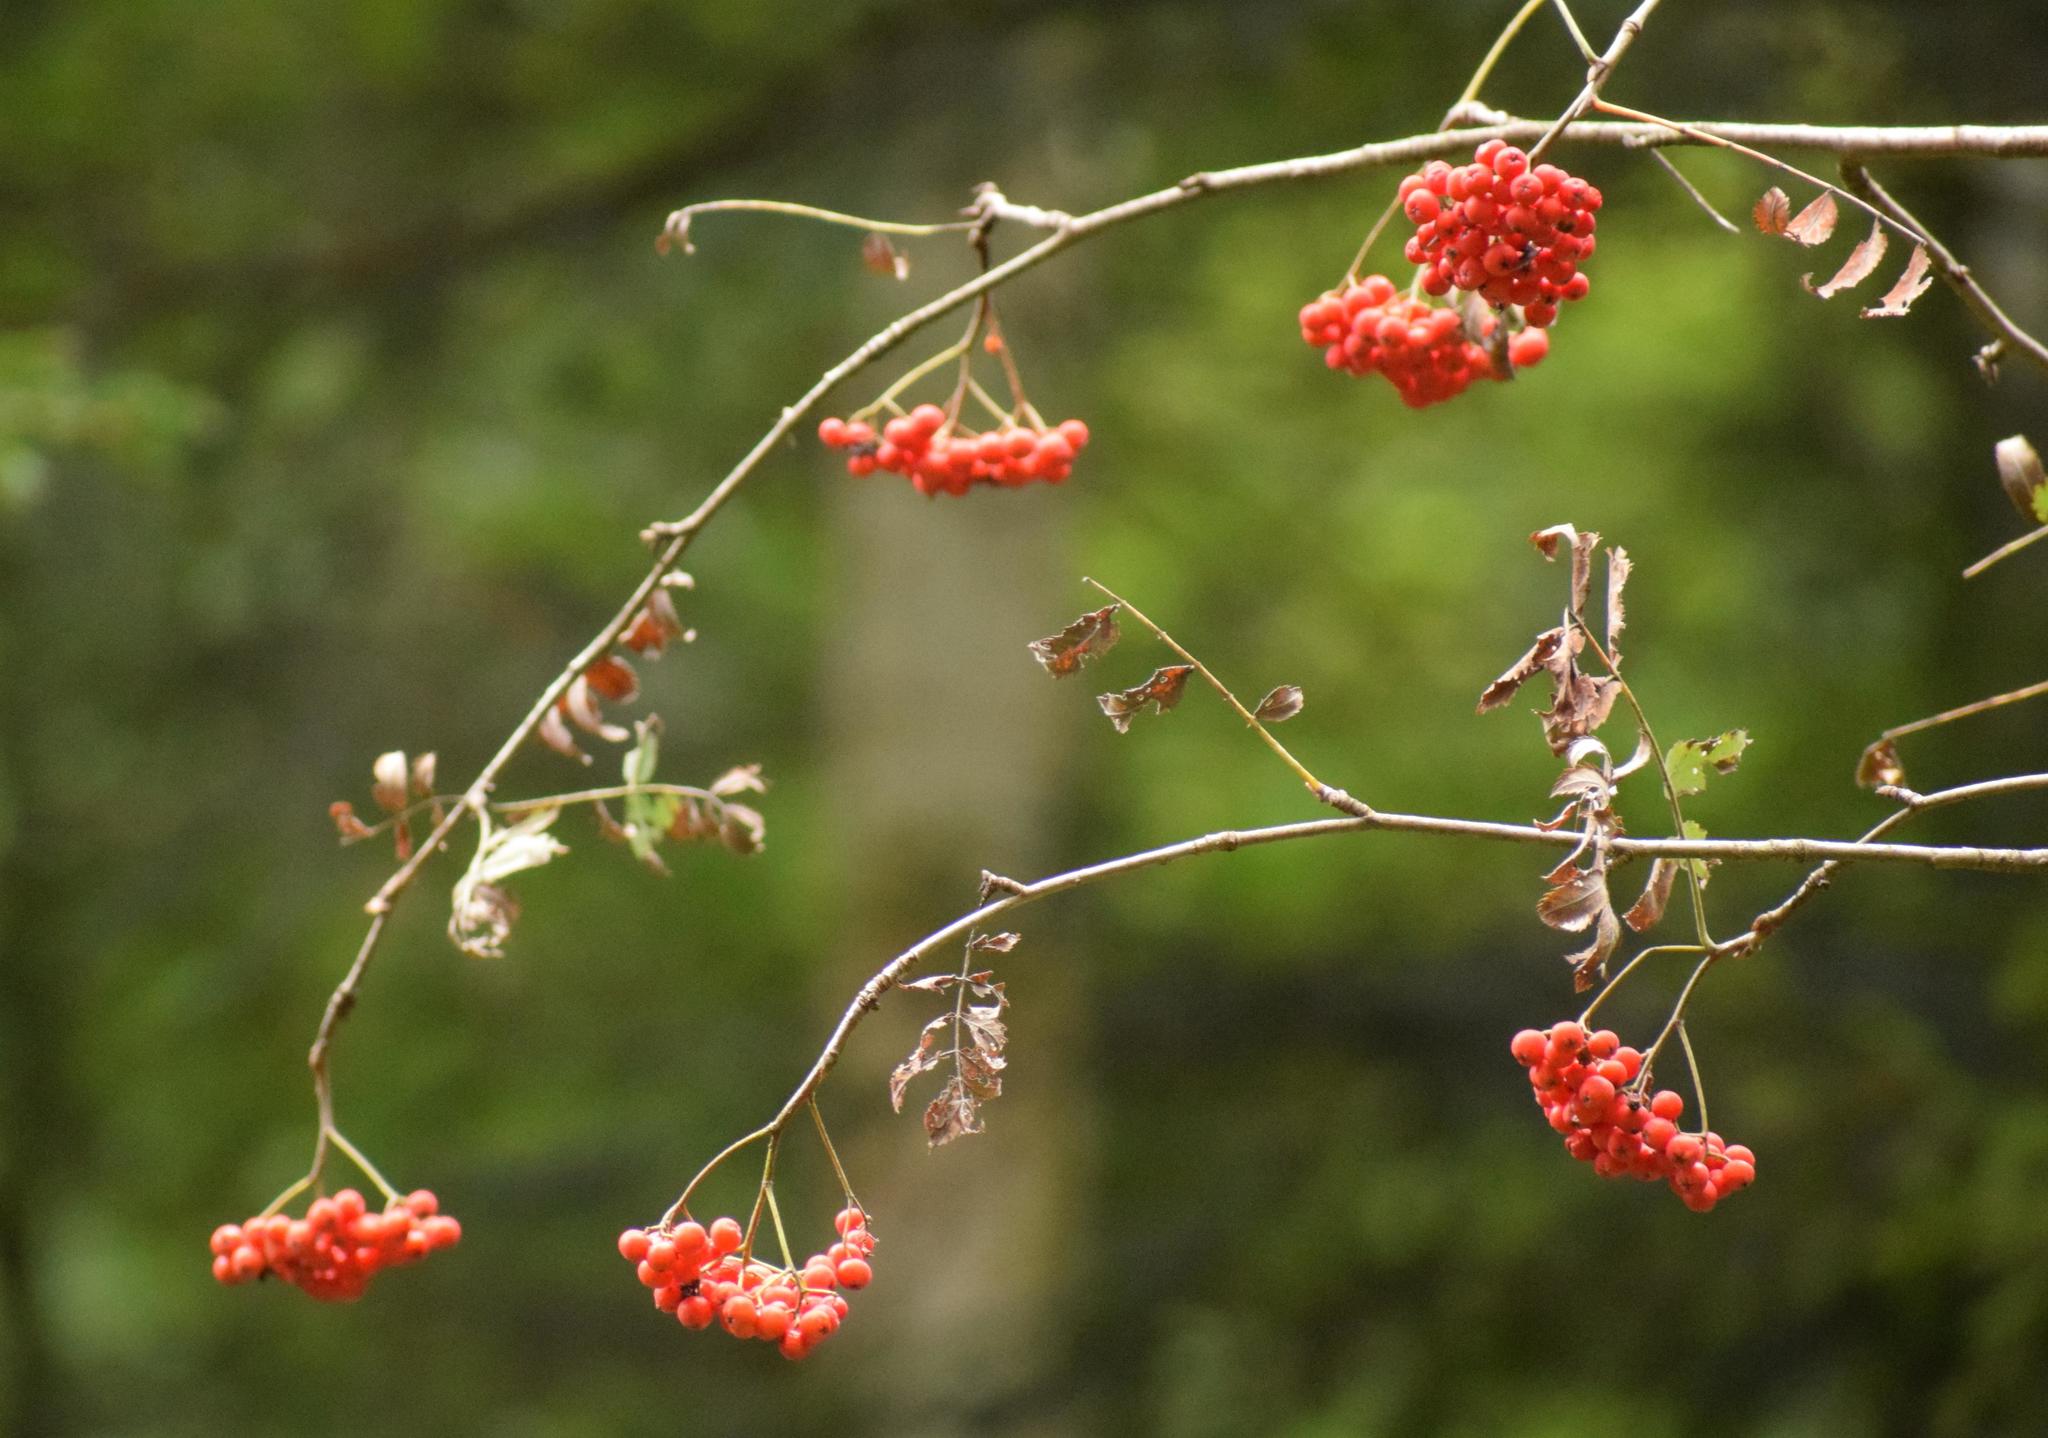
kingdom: Plantae
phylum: Tracheophyta
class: Magnoliopsida
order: Rosales
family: Rosaceae
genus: Sorbus
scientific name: Sorbus aucuparia
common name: Rowan
